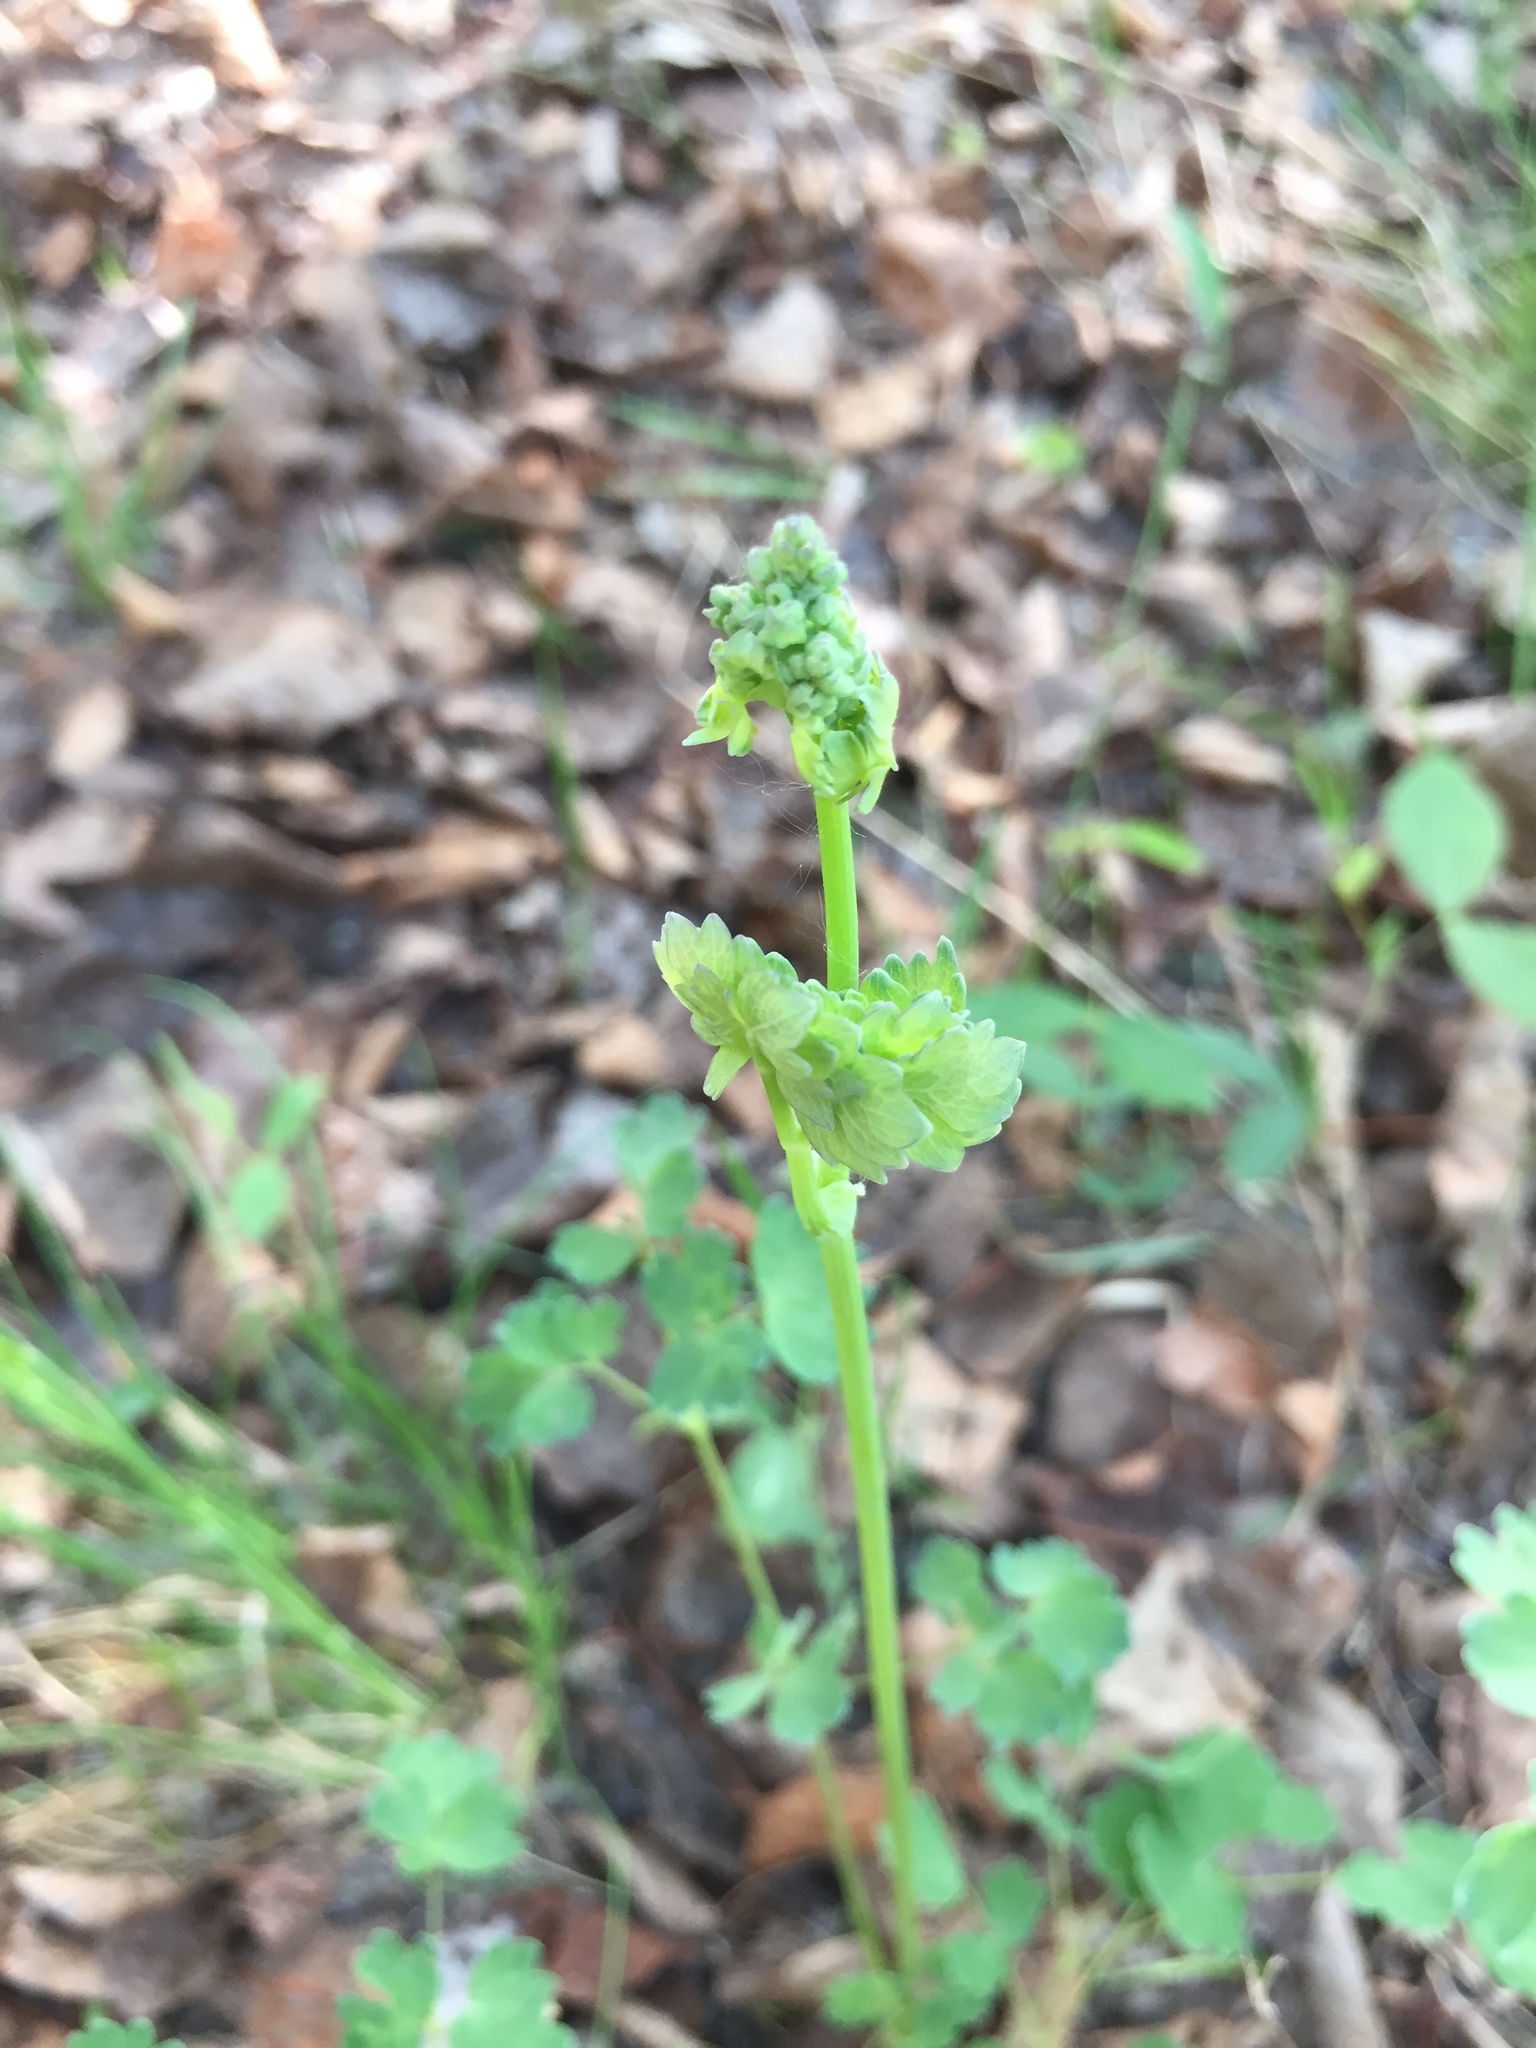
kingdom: Plantae
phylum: Tracheophyta
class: Magnoliopsida
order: Ranunculales
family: Ranunculaceae
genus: Thalictrum
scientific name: Thalictrum venulosum
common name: Early meadow-rue
